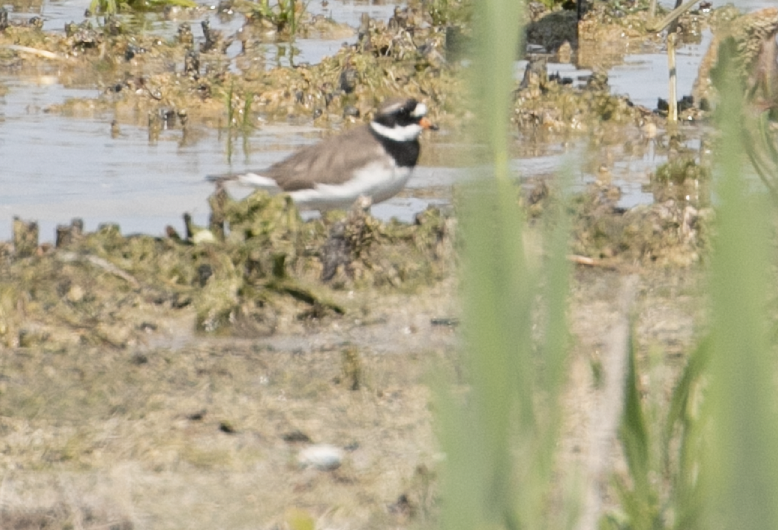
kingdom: Animalia
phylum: Chordata
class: Aves
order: Charadriiformes
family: Charadriidae
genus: Charadrius
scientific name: Charadrius hiaticula
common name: Common ringed plover
